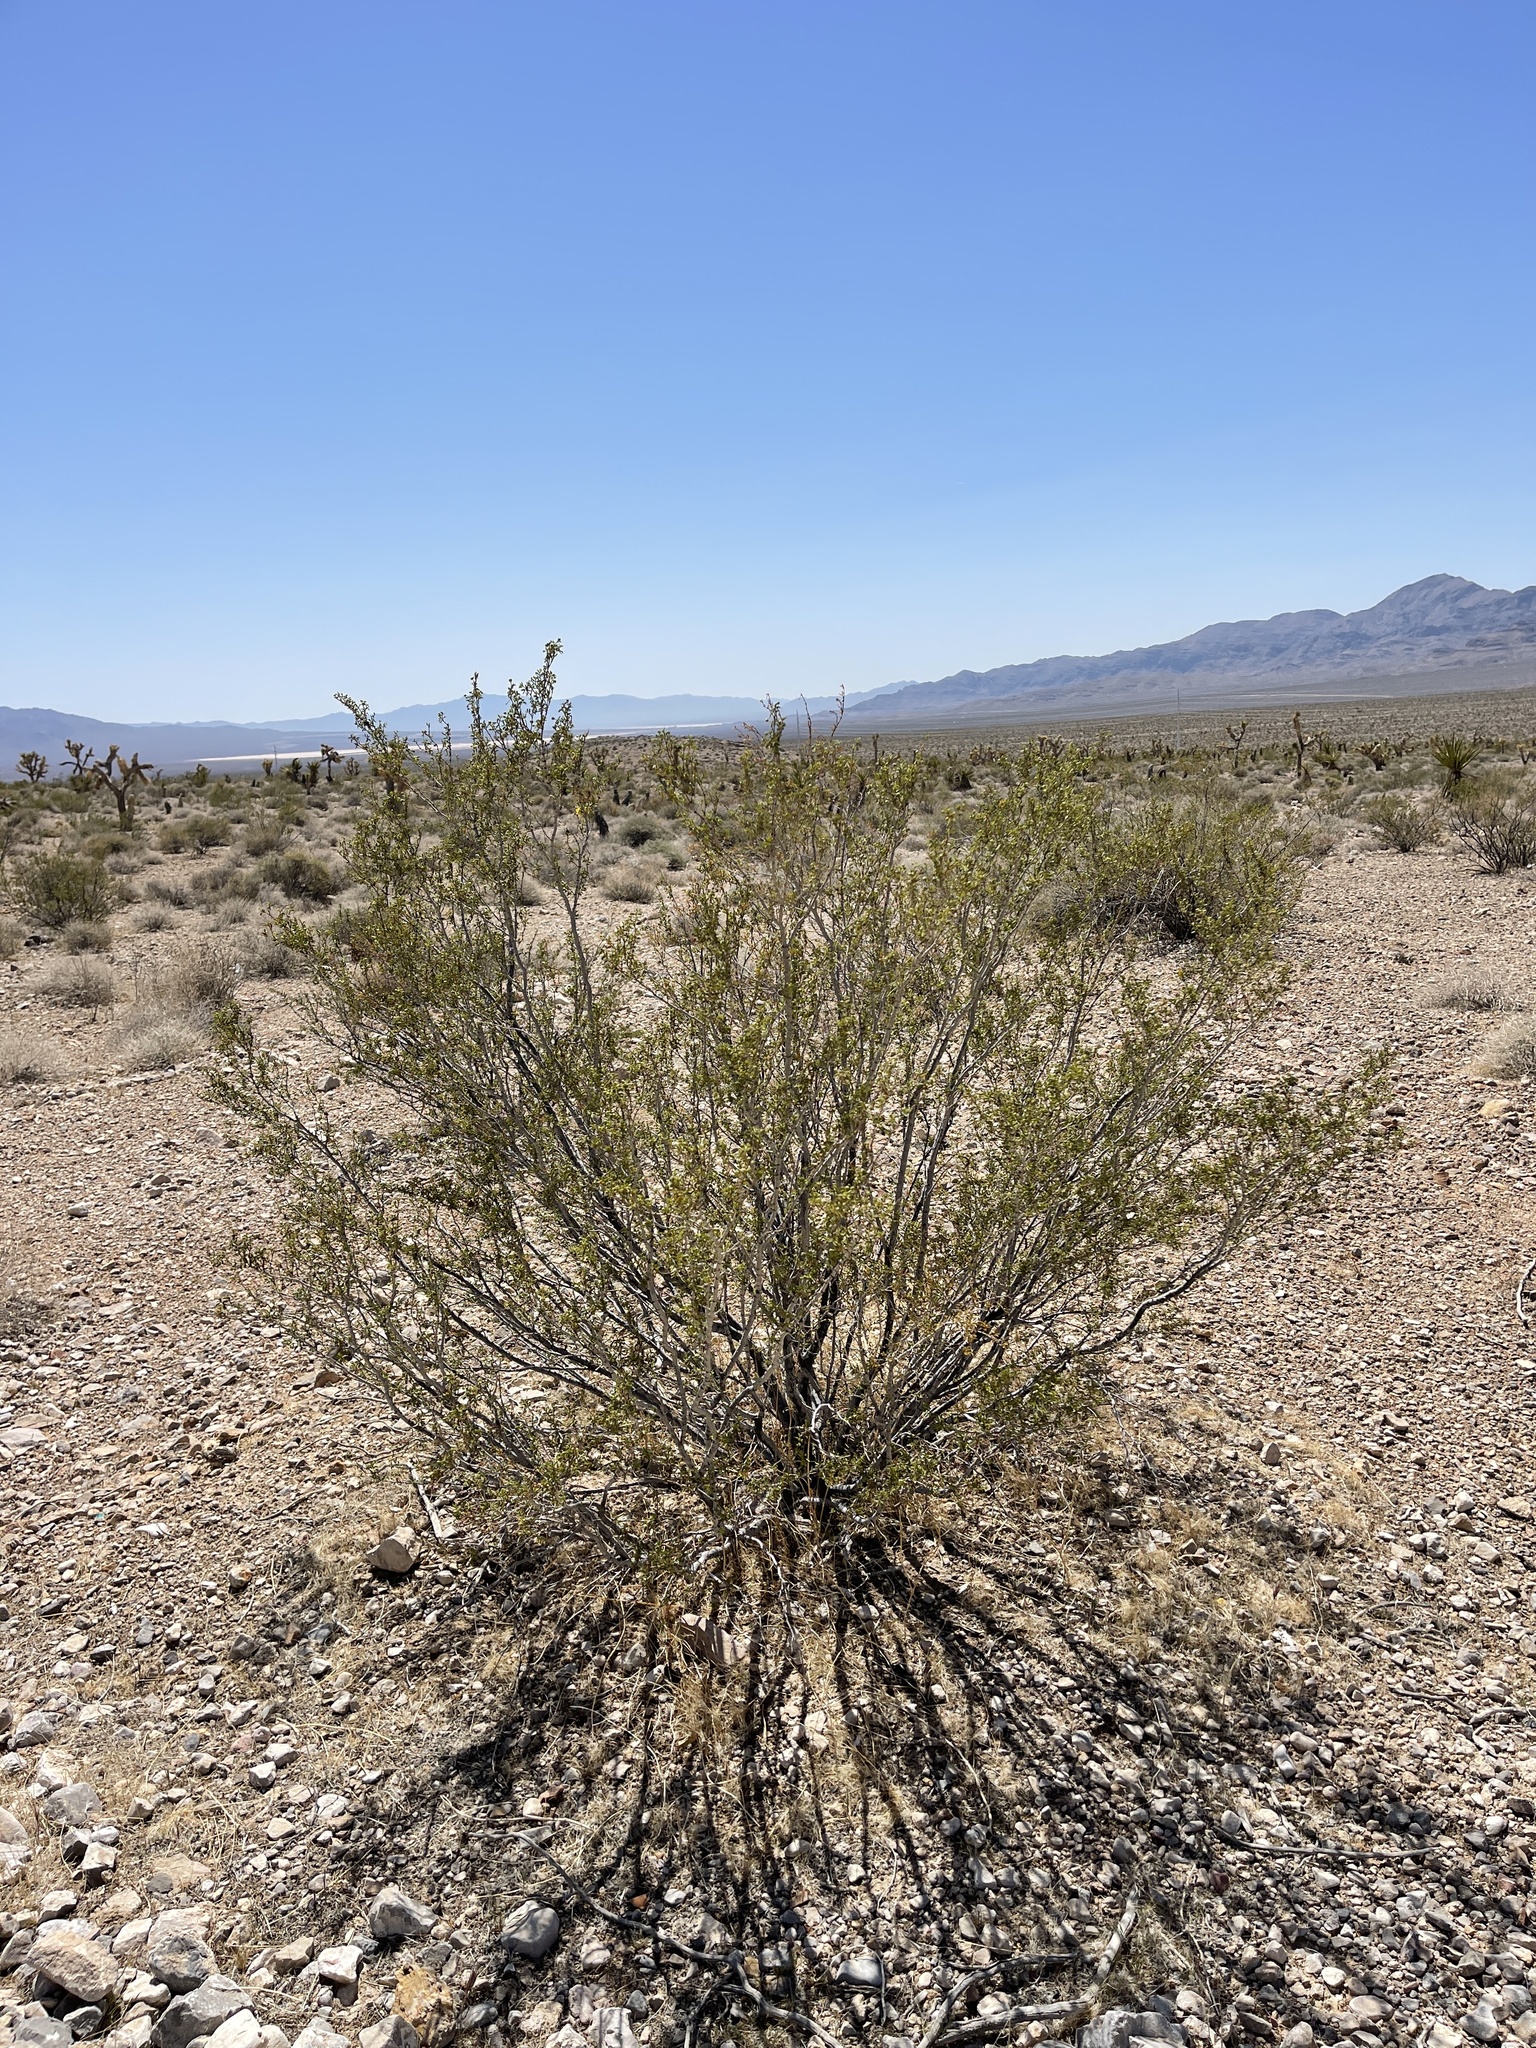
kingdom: Plantae
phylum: Tracheophyta
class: Magnoliopsida
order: Zygophyllales
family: Zygophyllaceae
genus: Larrea
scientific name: Larrea tridentata
